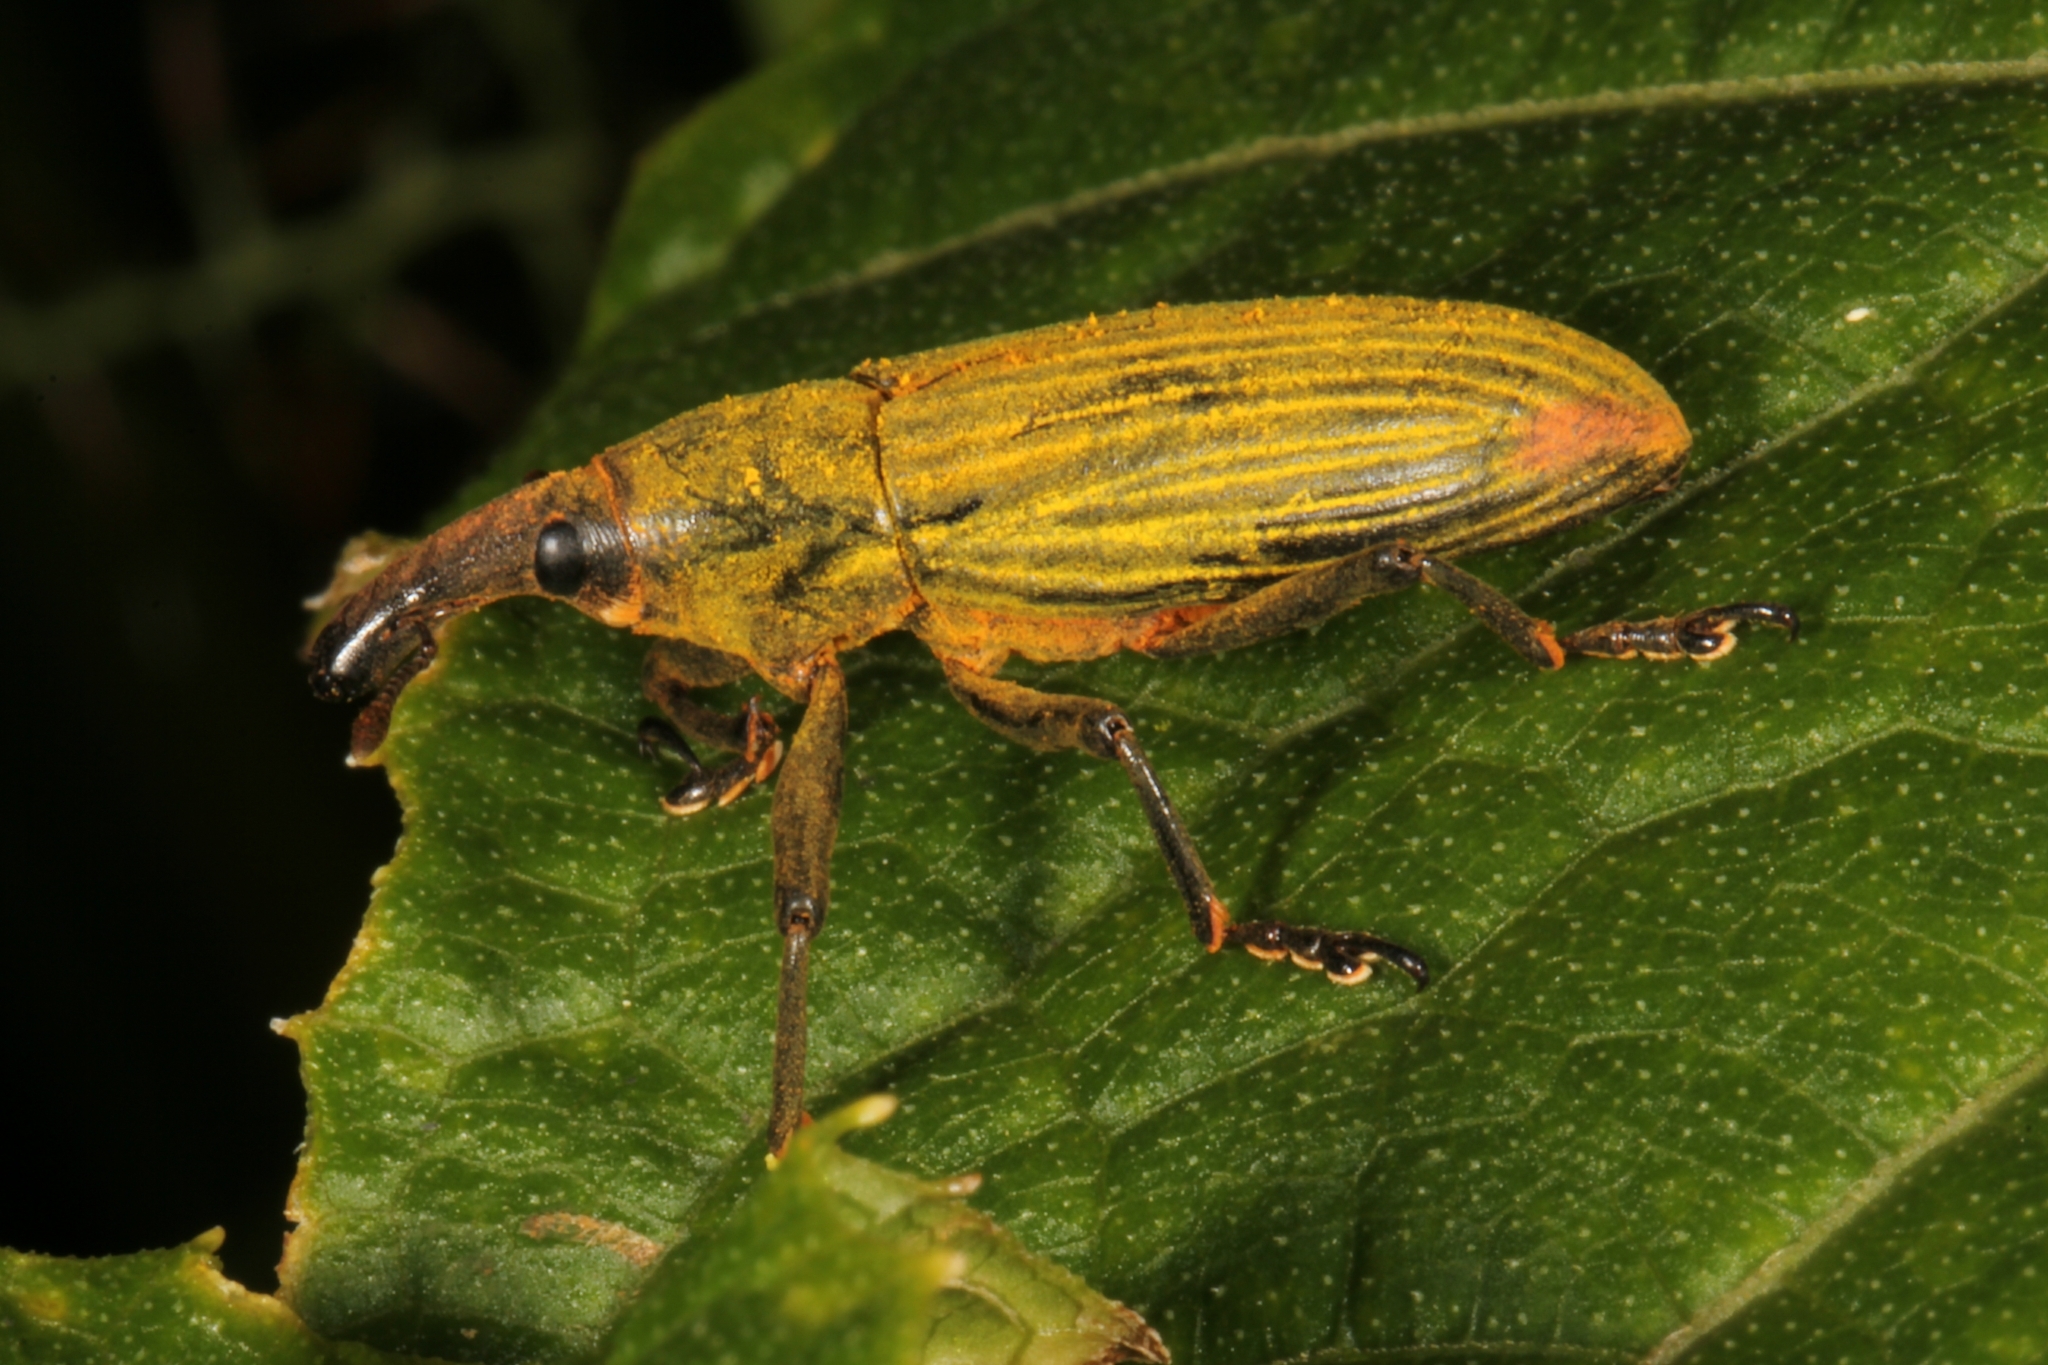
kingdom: Animalia
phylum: Arthropoda
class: Insecta
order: Coleoptera
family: Curculionidae
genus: Lixus
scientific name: Lixus apterus
